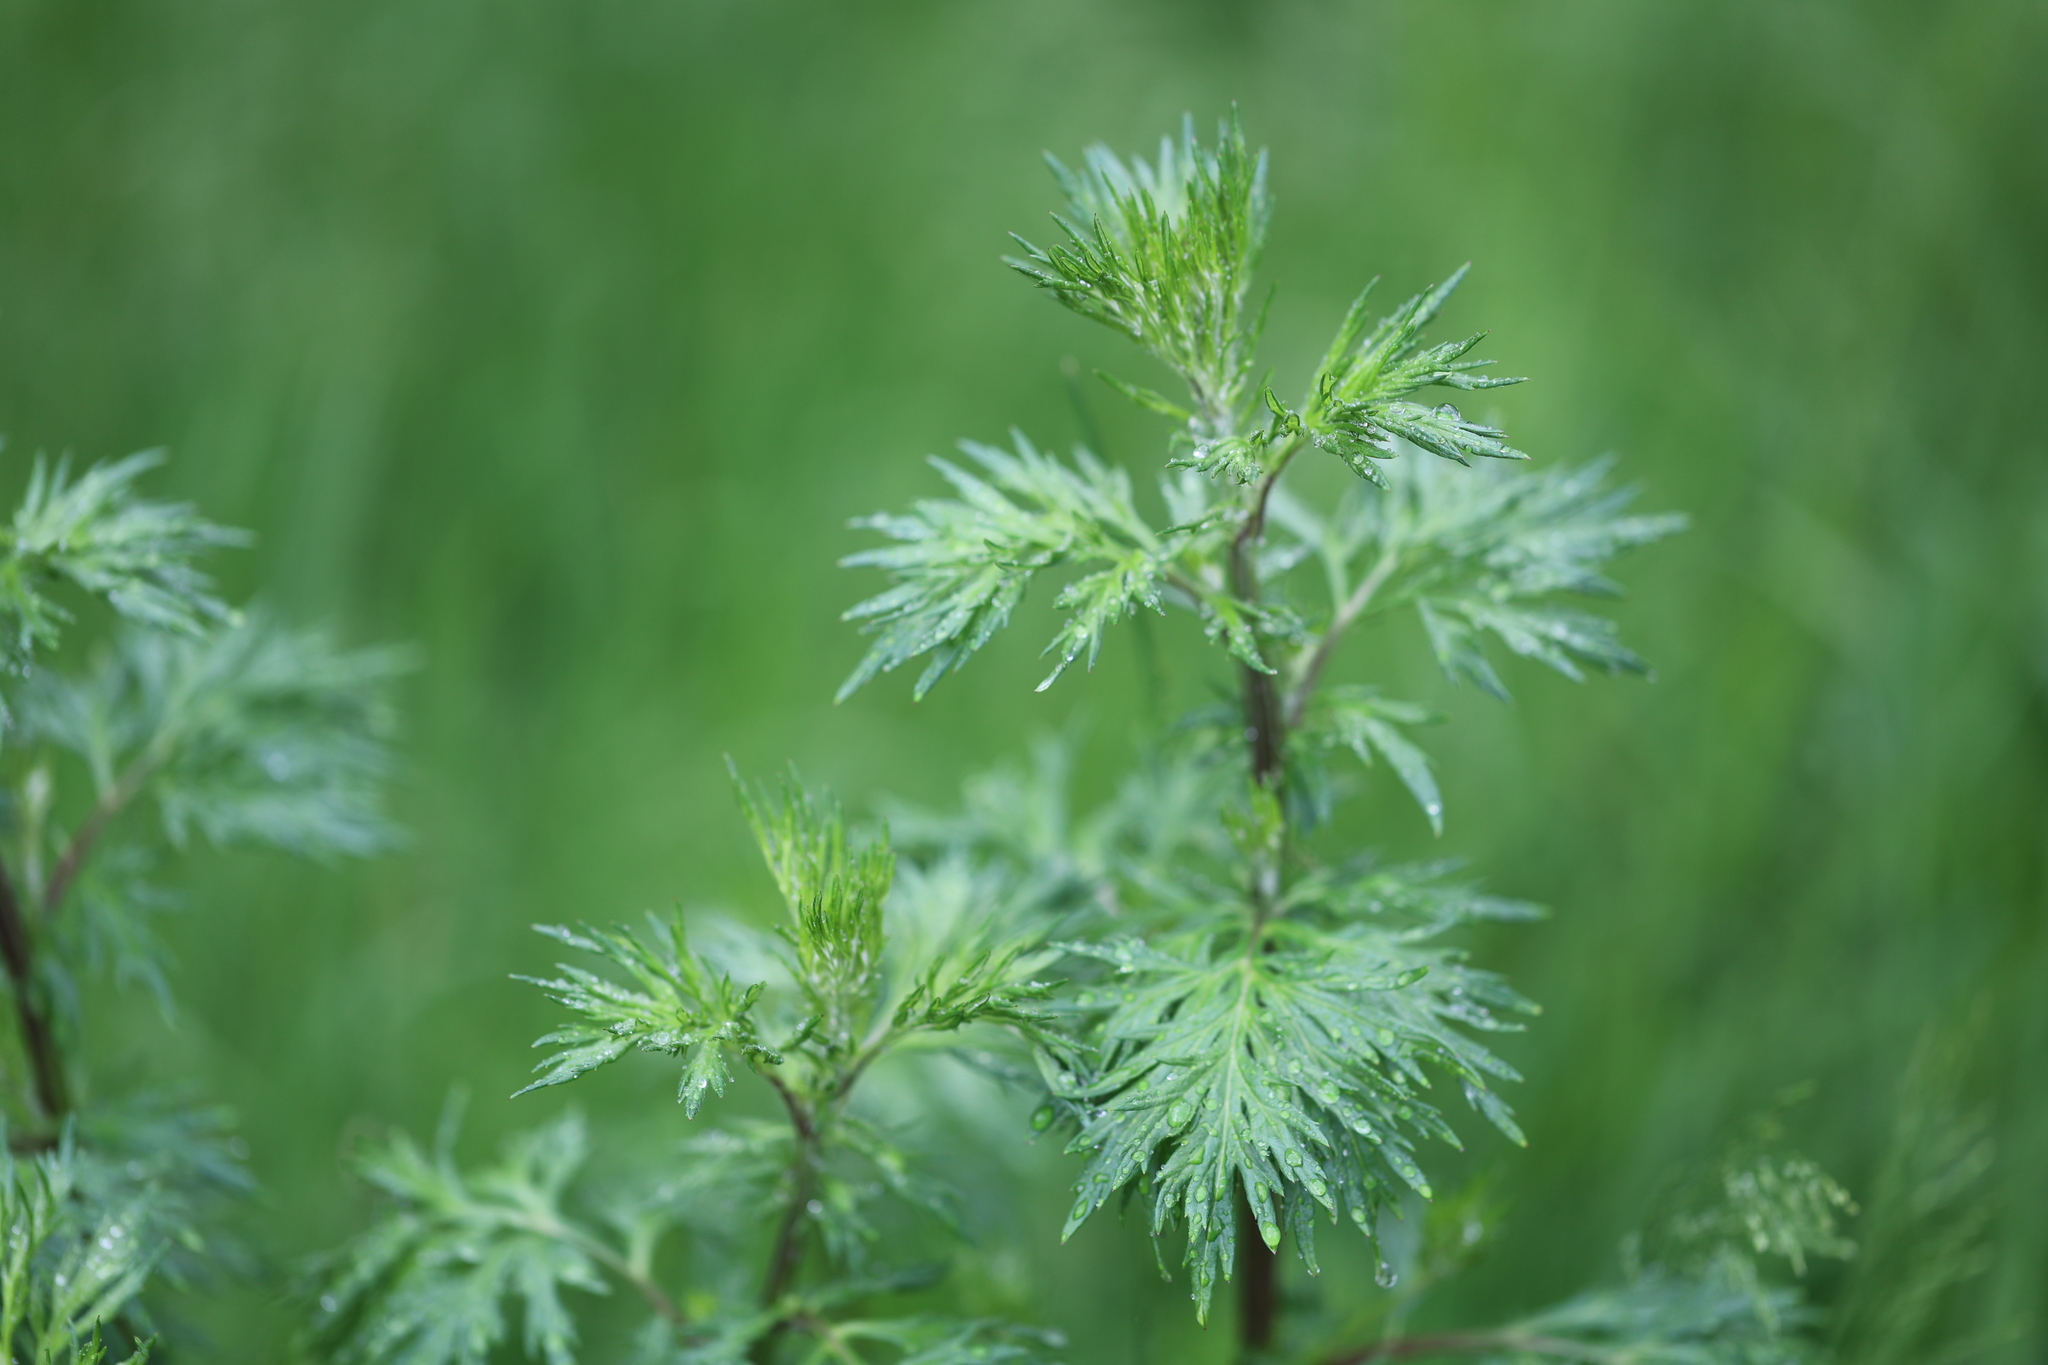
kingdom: Plantae
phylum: Tracheophyta
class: Magnoliopsida
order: Asterales
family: Asteraceae
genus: Artemisia
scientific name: Artemisia vulgaris
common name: Mugwort
